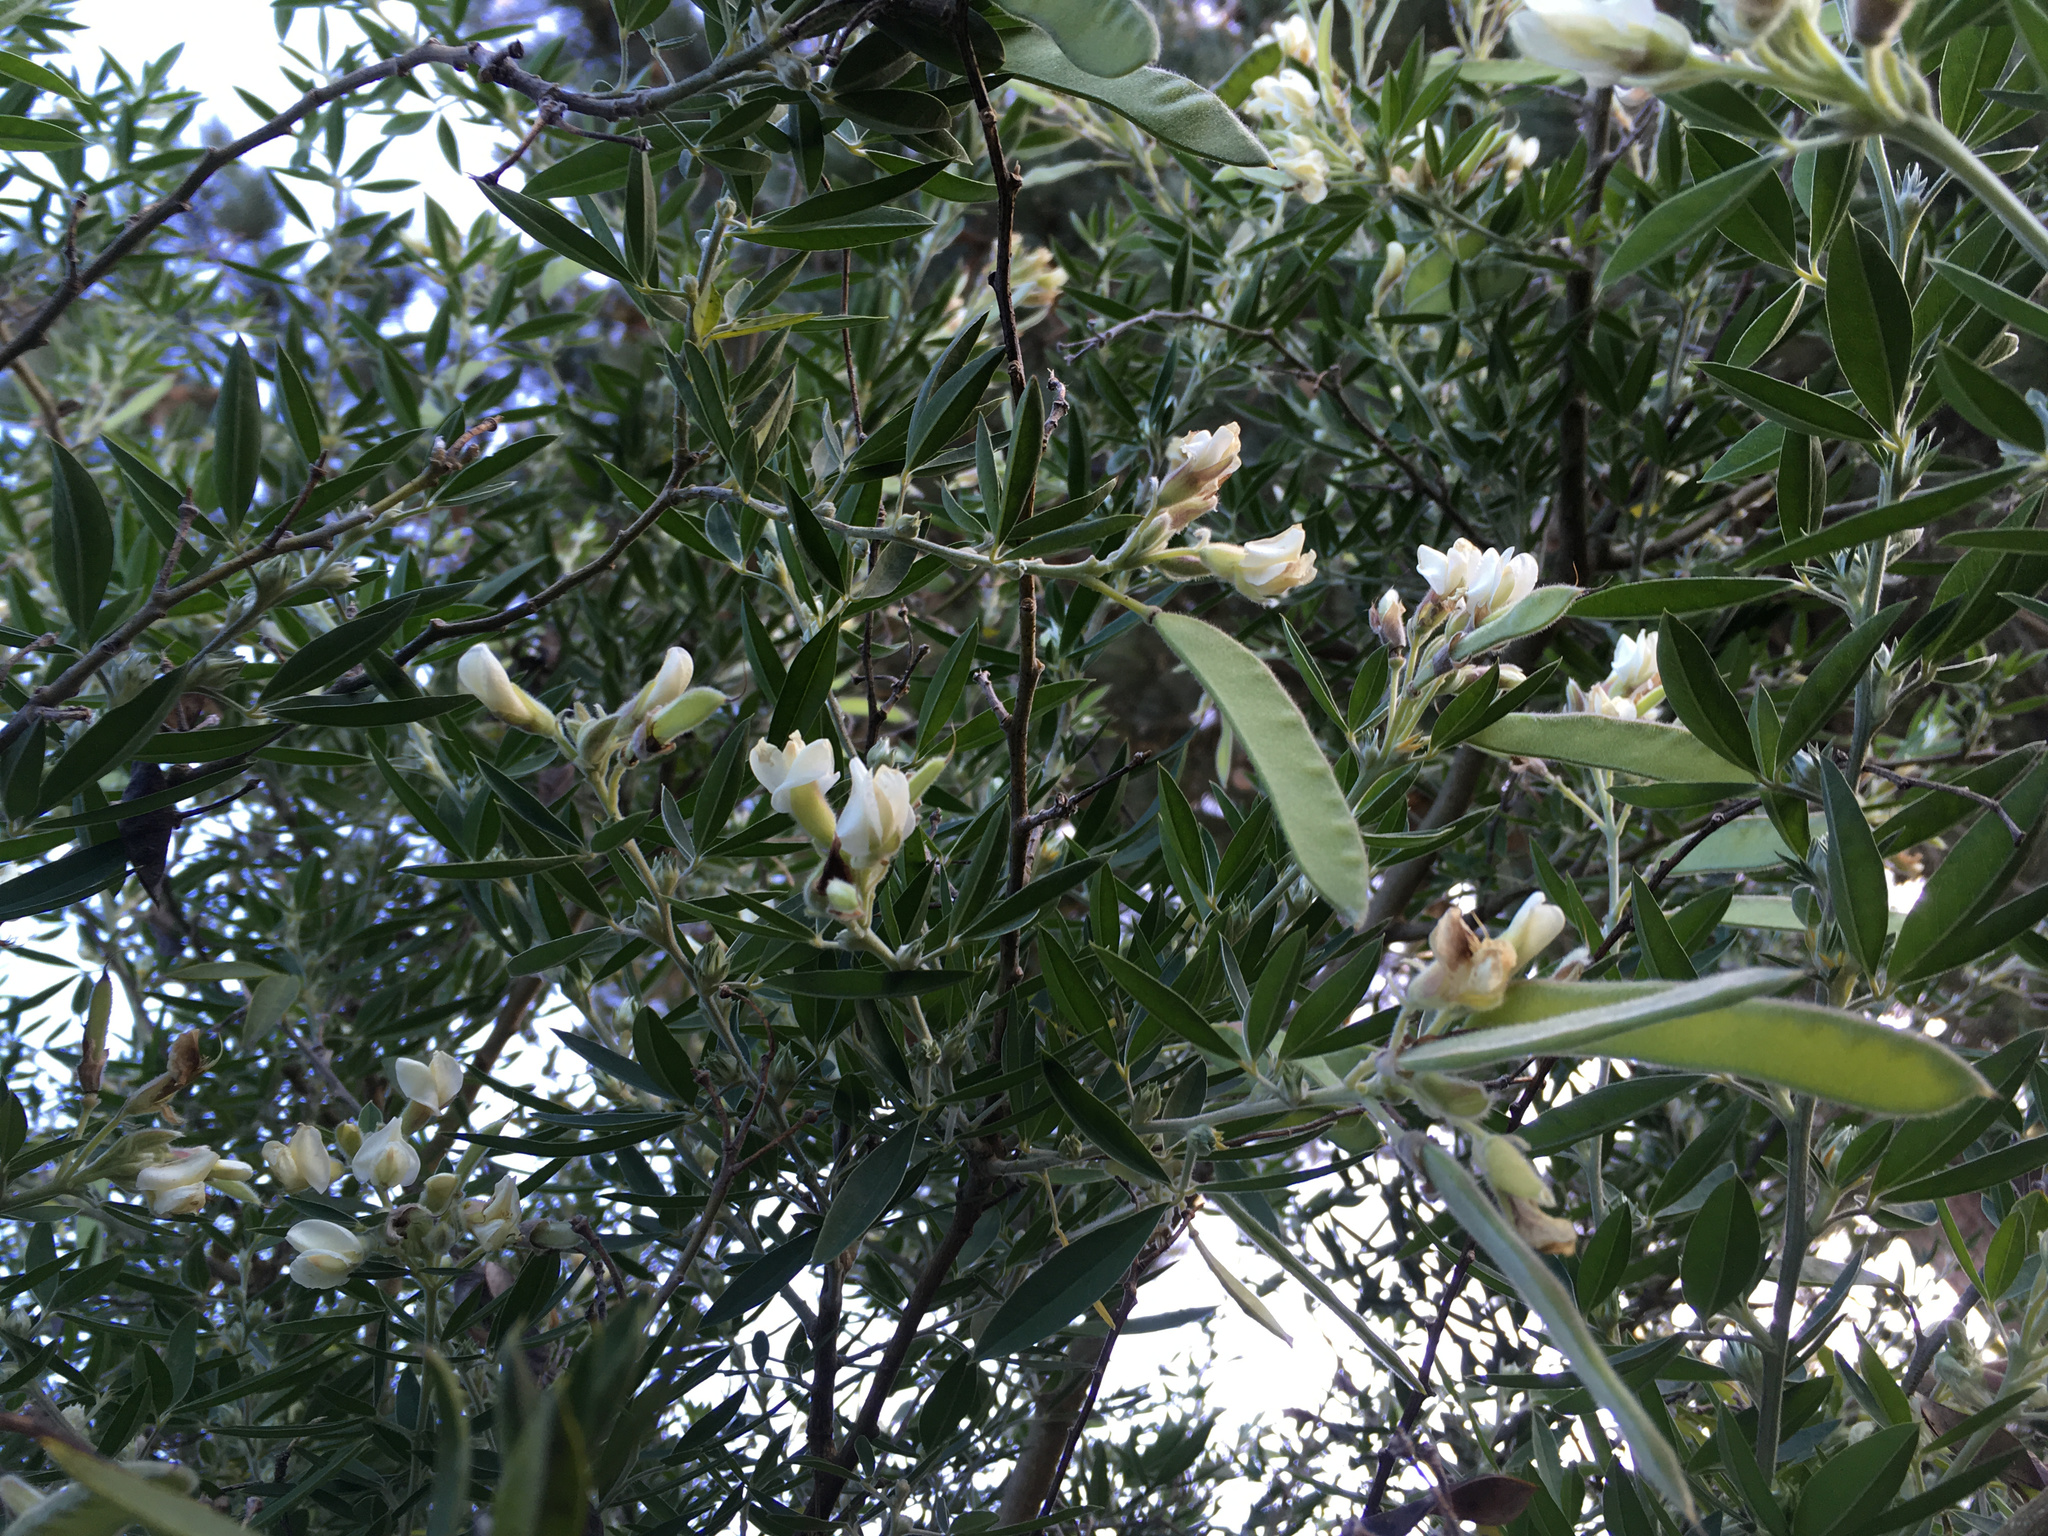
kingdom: Plantae
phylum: Tracheophyta
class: Magnoliopsida
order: Fabales
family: Fabaceae
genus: Chamaecytisus
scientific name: Chamaecytisus prolifer
